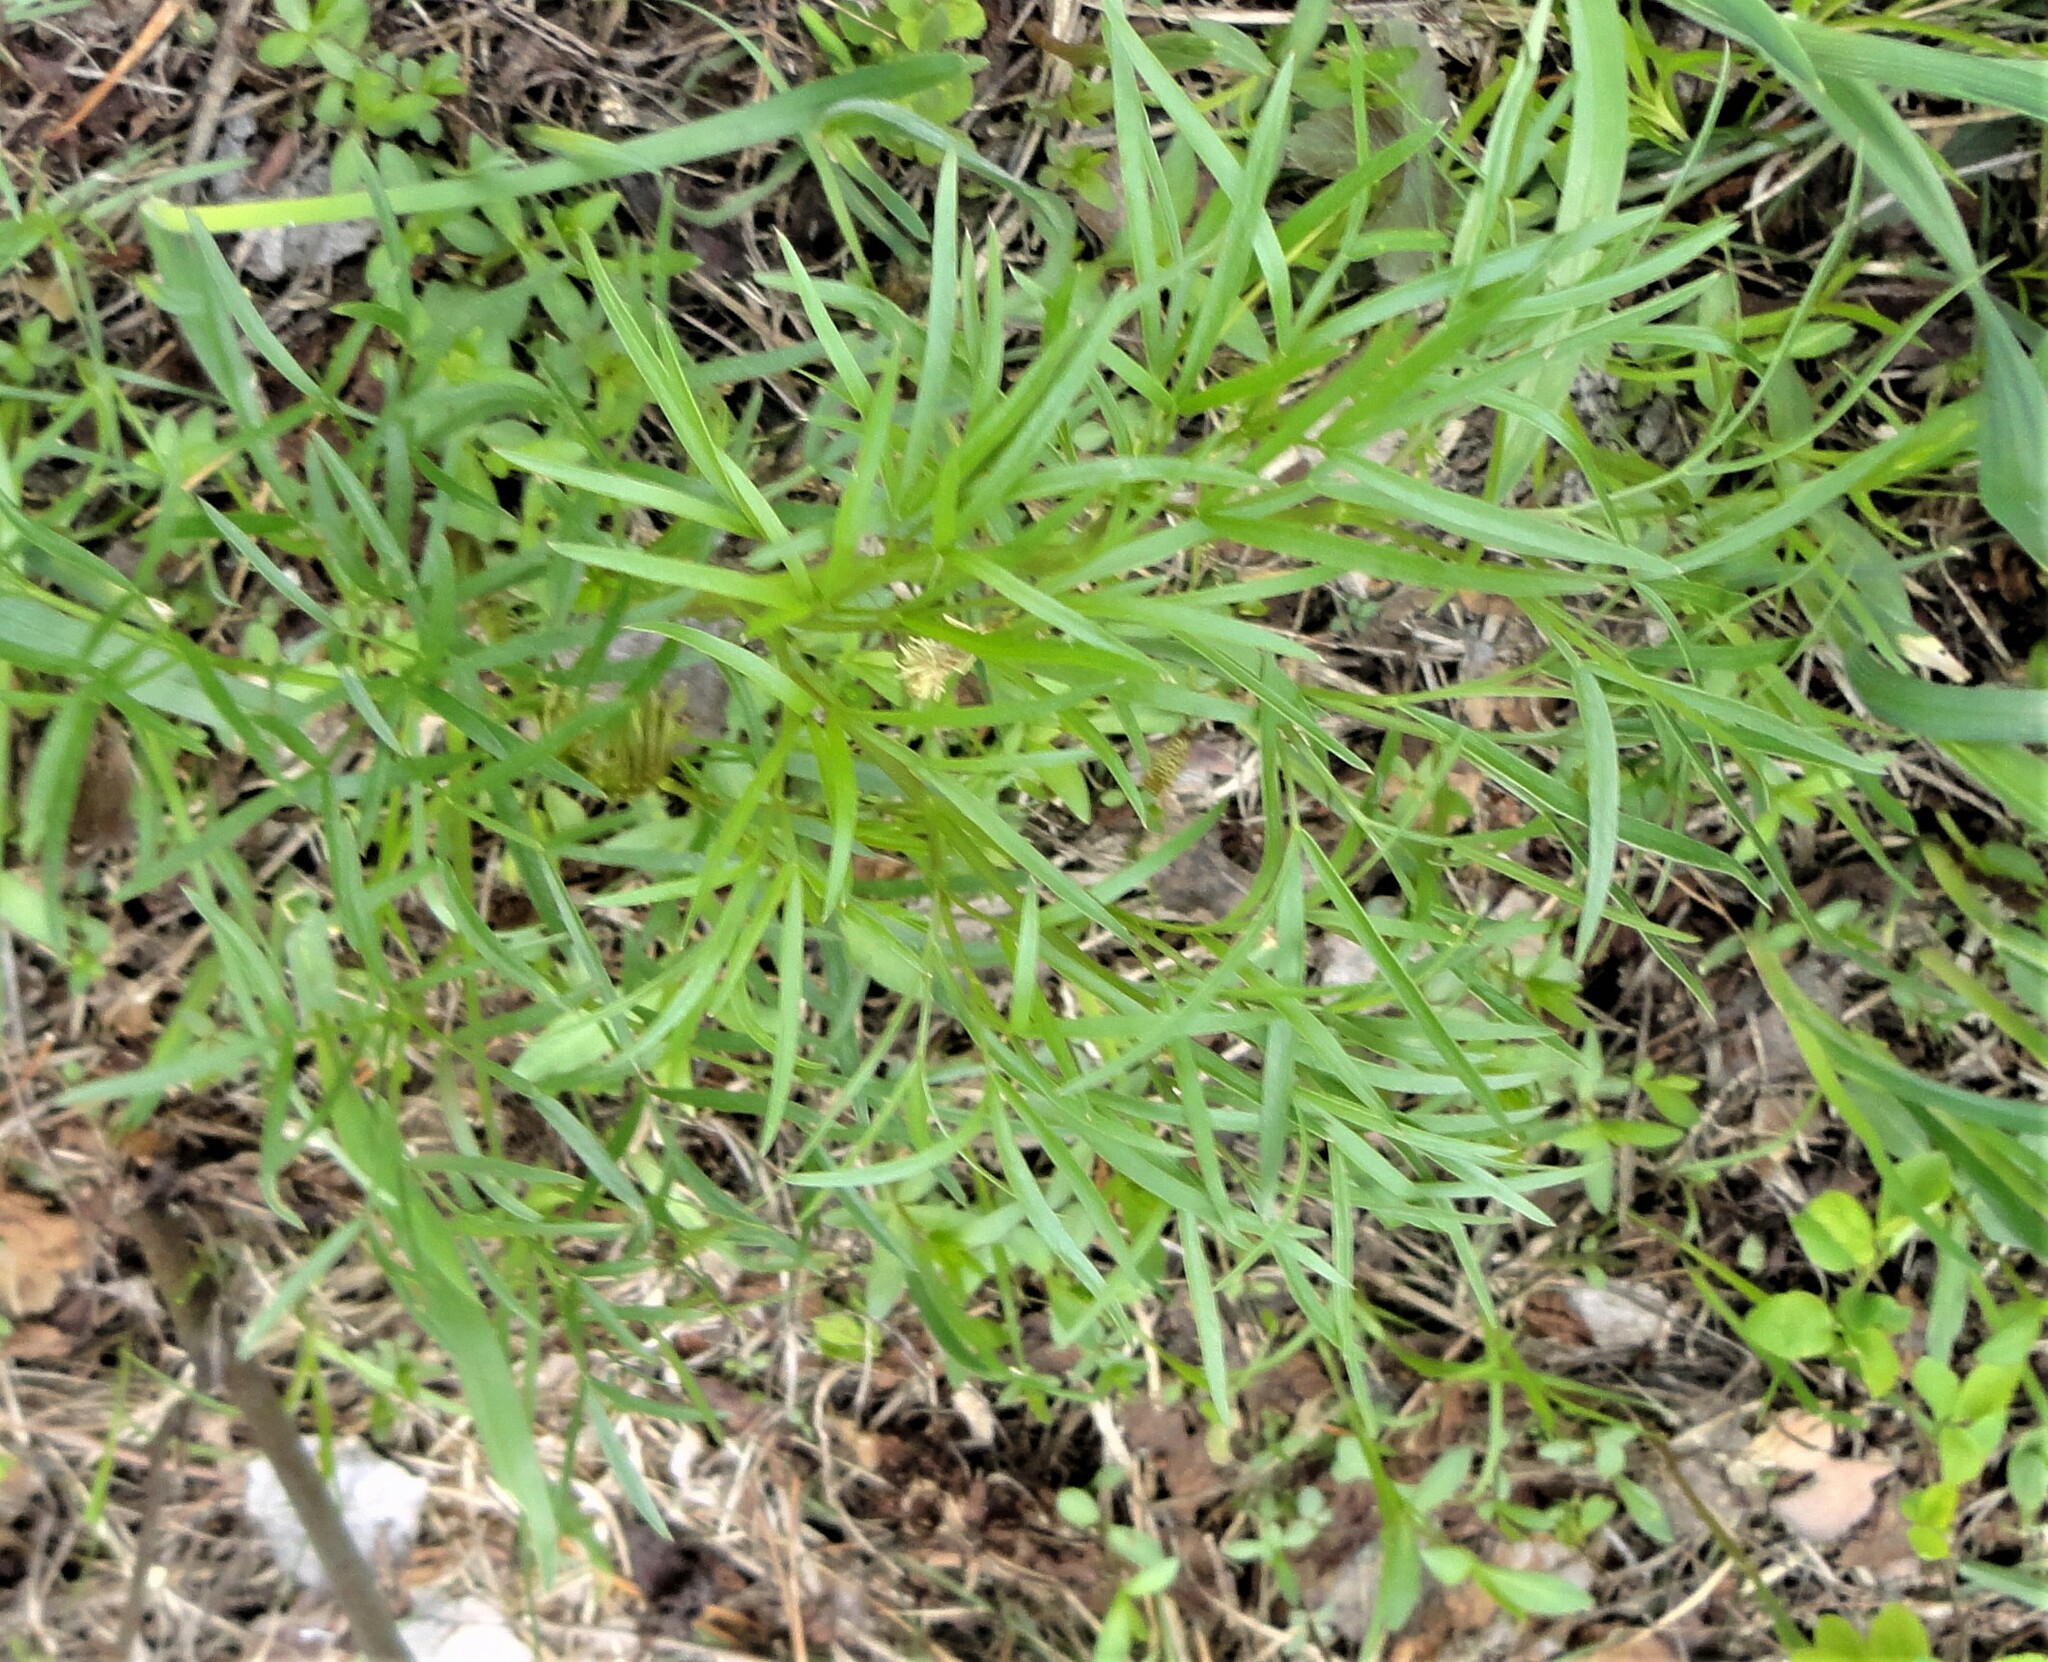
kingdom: Plantae
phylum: Tracheophyta
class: Magnoliopsida
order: Apiales
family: Apiaceae
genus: Peucedanum
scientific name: Peucedanum morisonii
